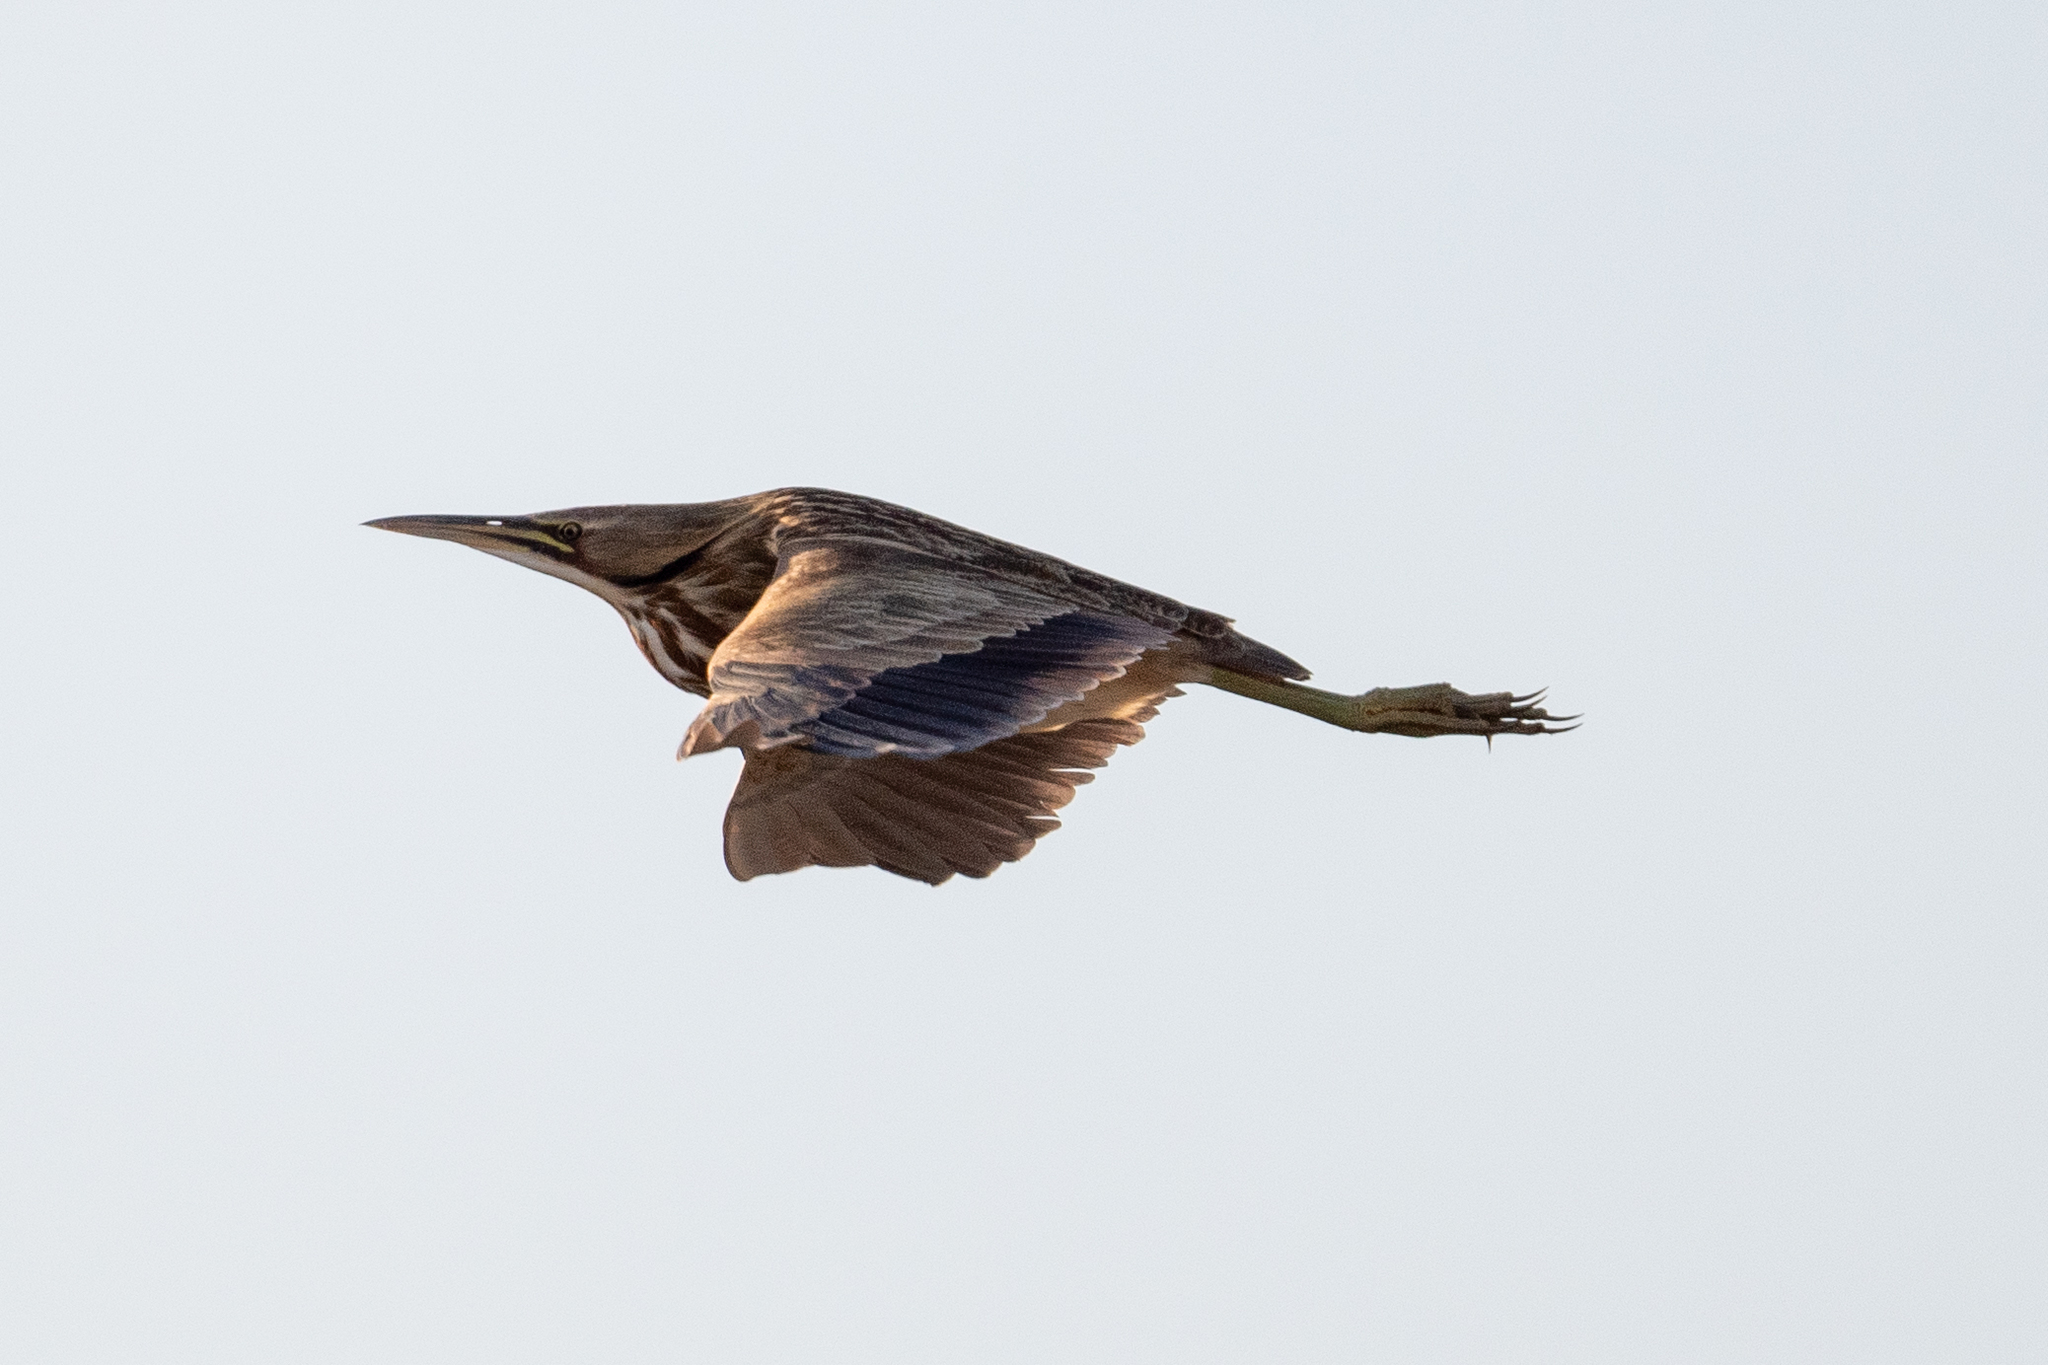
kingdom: Animalia
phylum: Chordata
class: Aves
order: Pelecaniformes
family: Ardeidae
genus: Botaurus
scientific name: Botaurus lentiginosus
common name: American bittern
